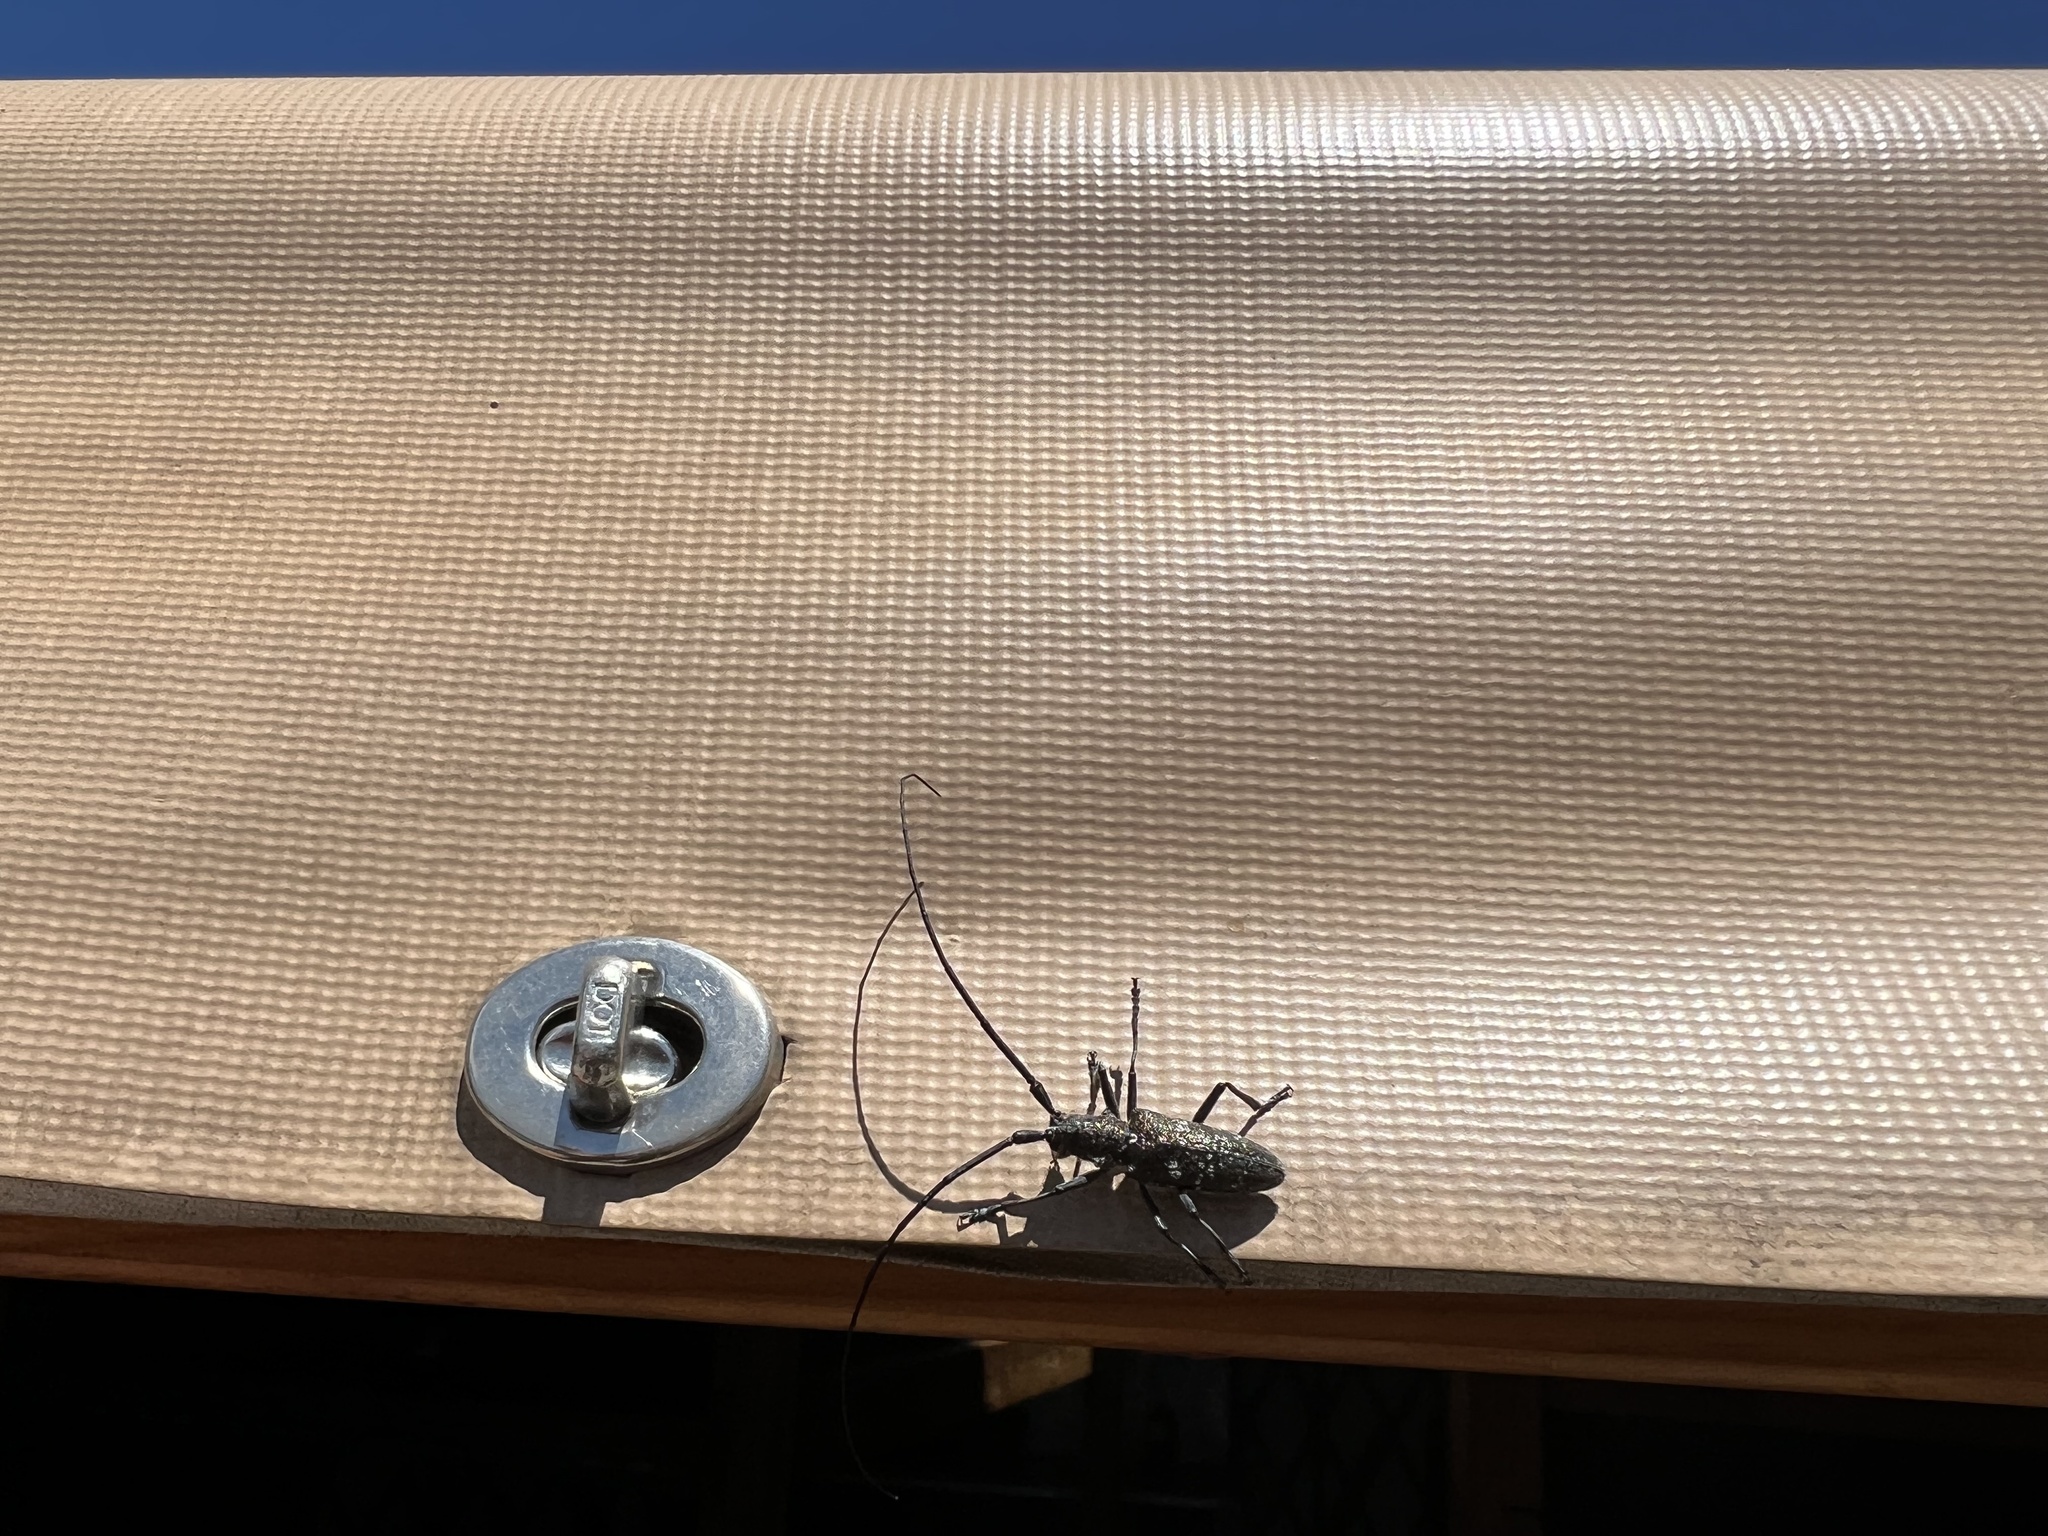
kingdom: Animalia
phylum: Arthropoda
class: Insecta
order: Coleoptera
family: Cerambycidae
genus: Monochamus
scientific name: Monochamus scutellatus
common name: White-spotted sawyer beetle
